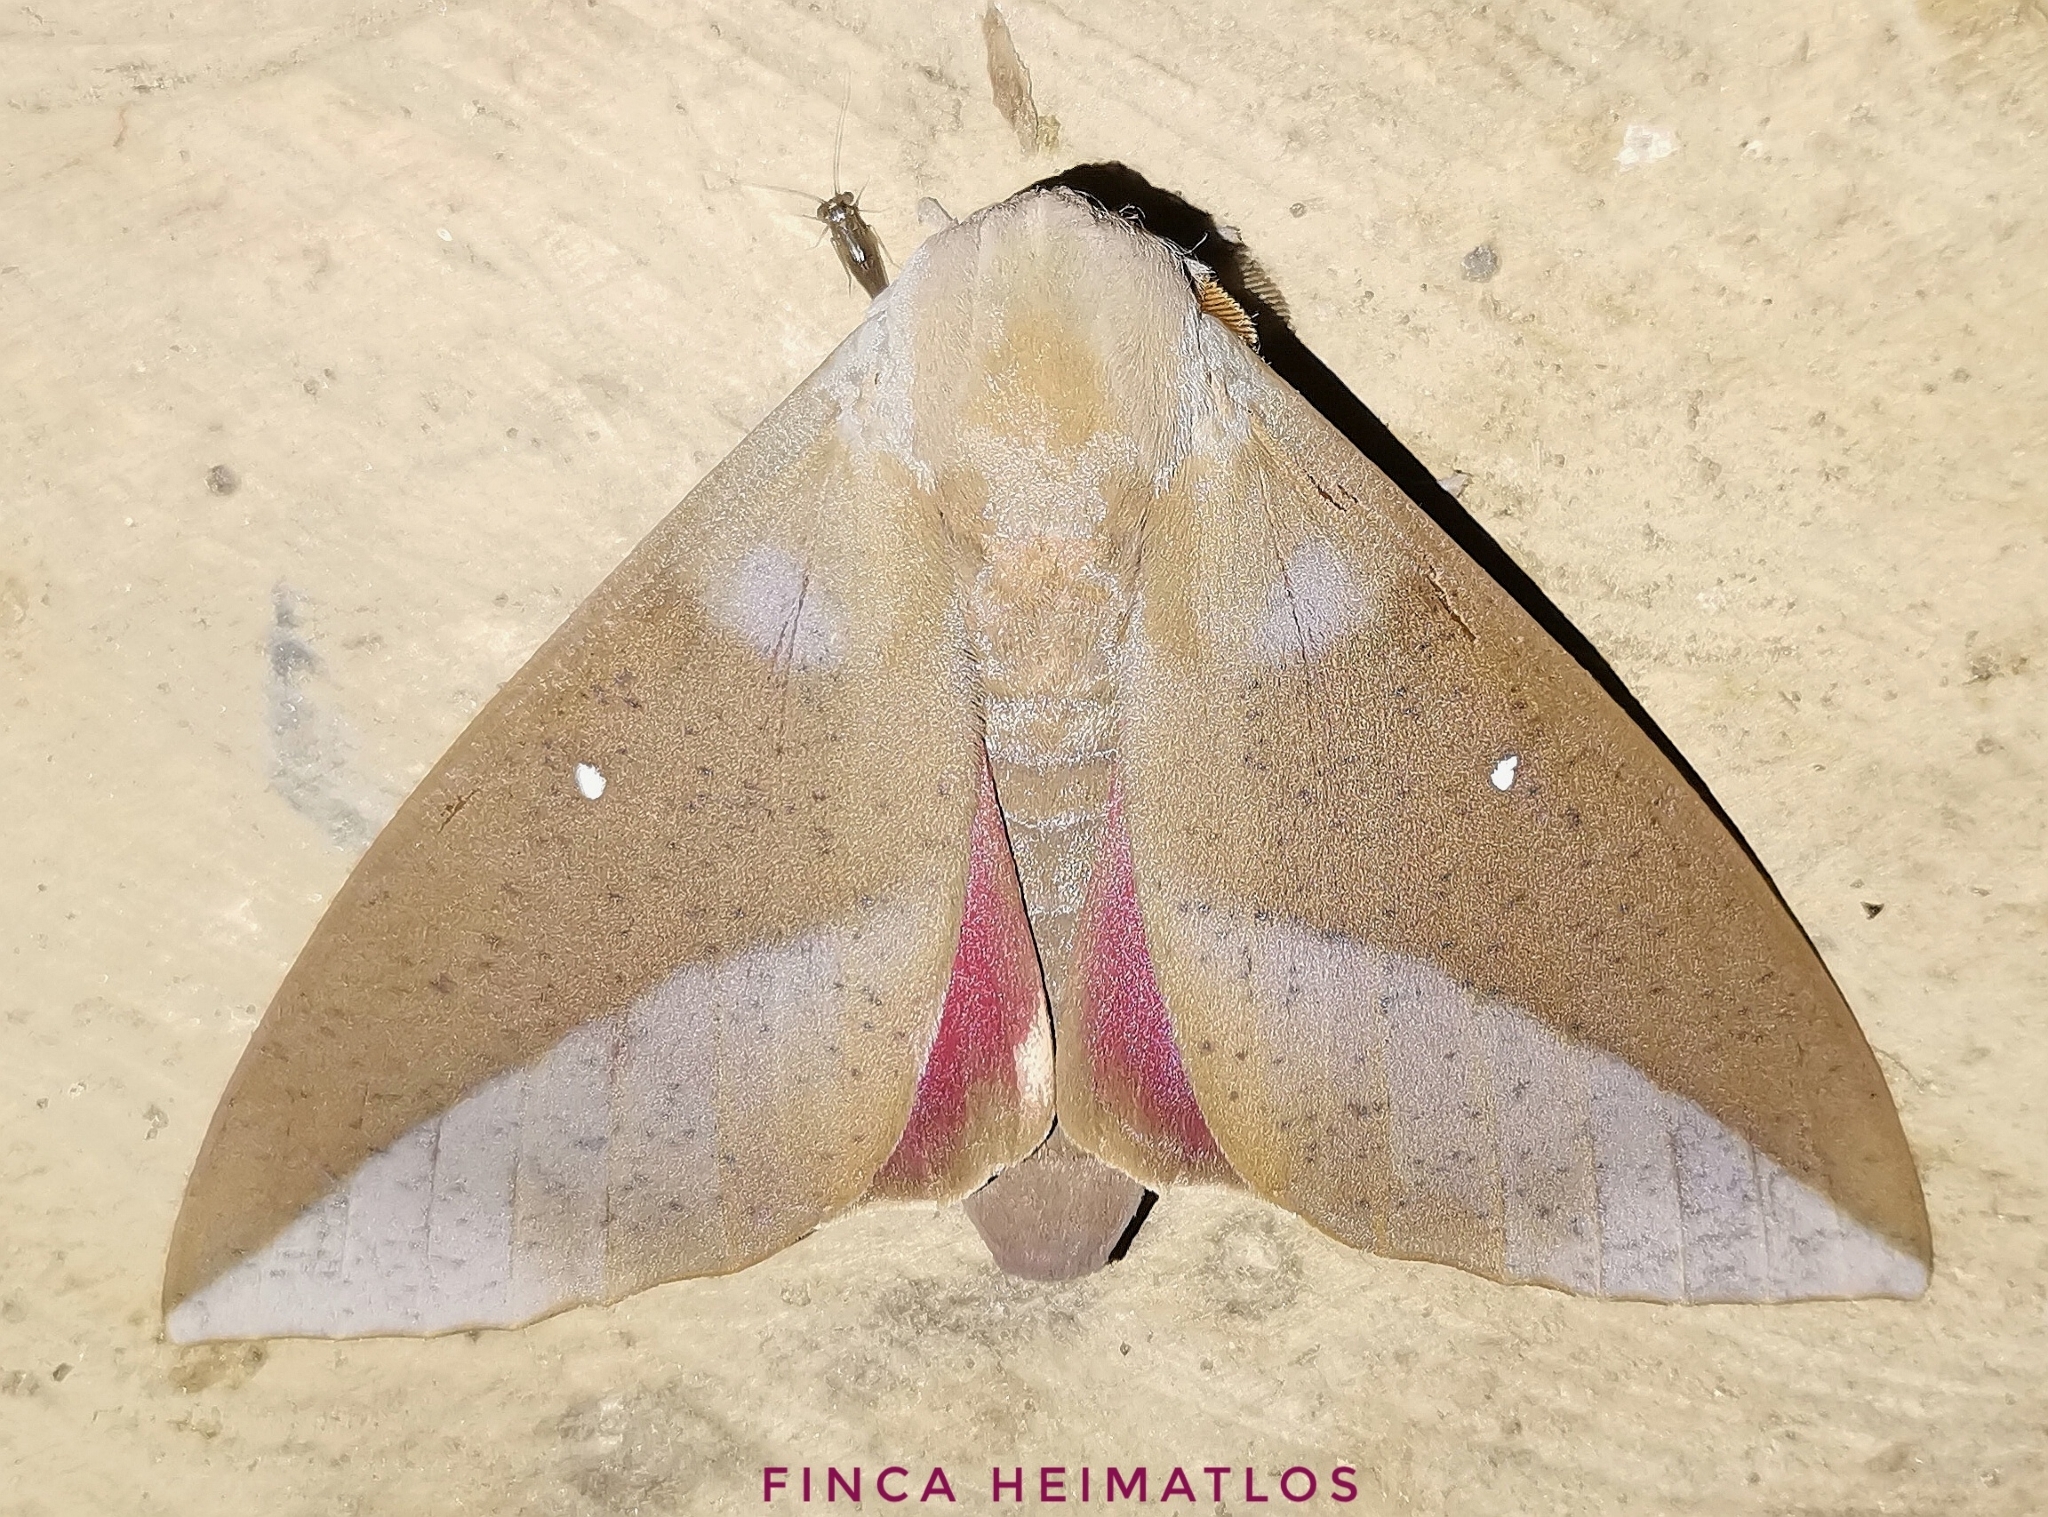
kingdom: Animalia
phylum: Arthropoda
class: Insecta
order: Lepidoptera
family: Saturniidae
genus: Othorene
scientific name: Othorene hodeva
